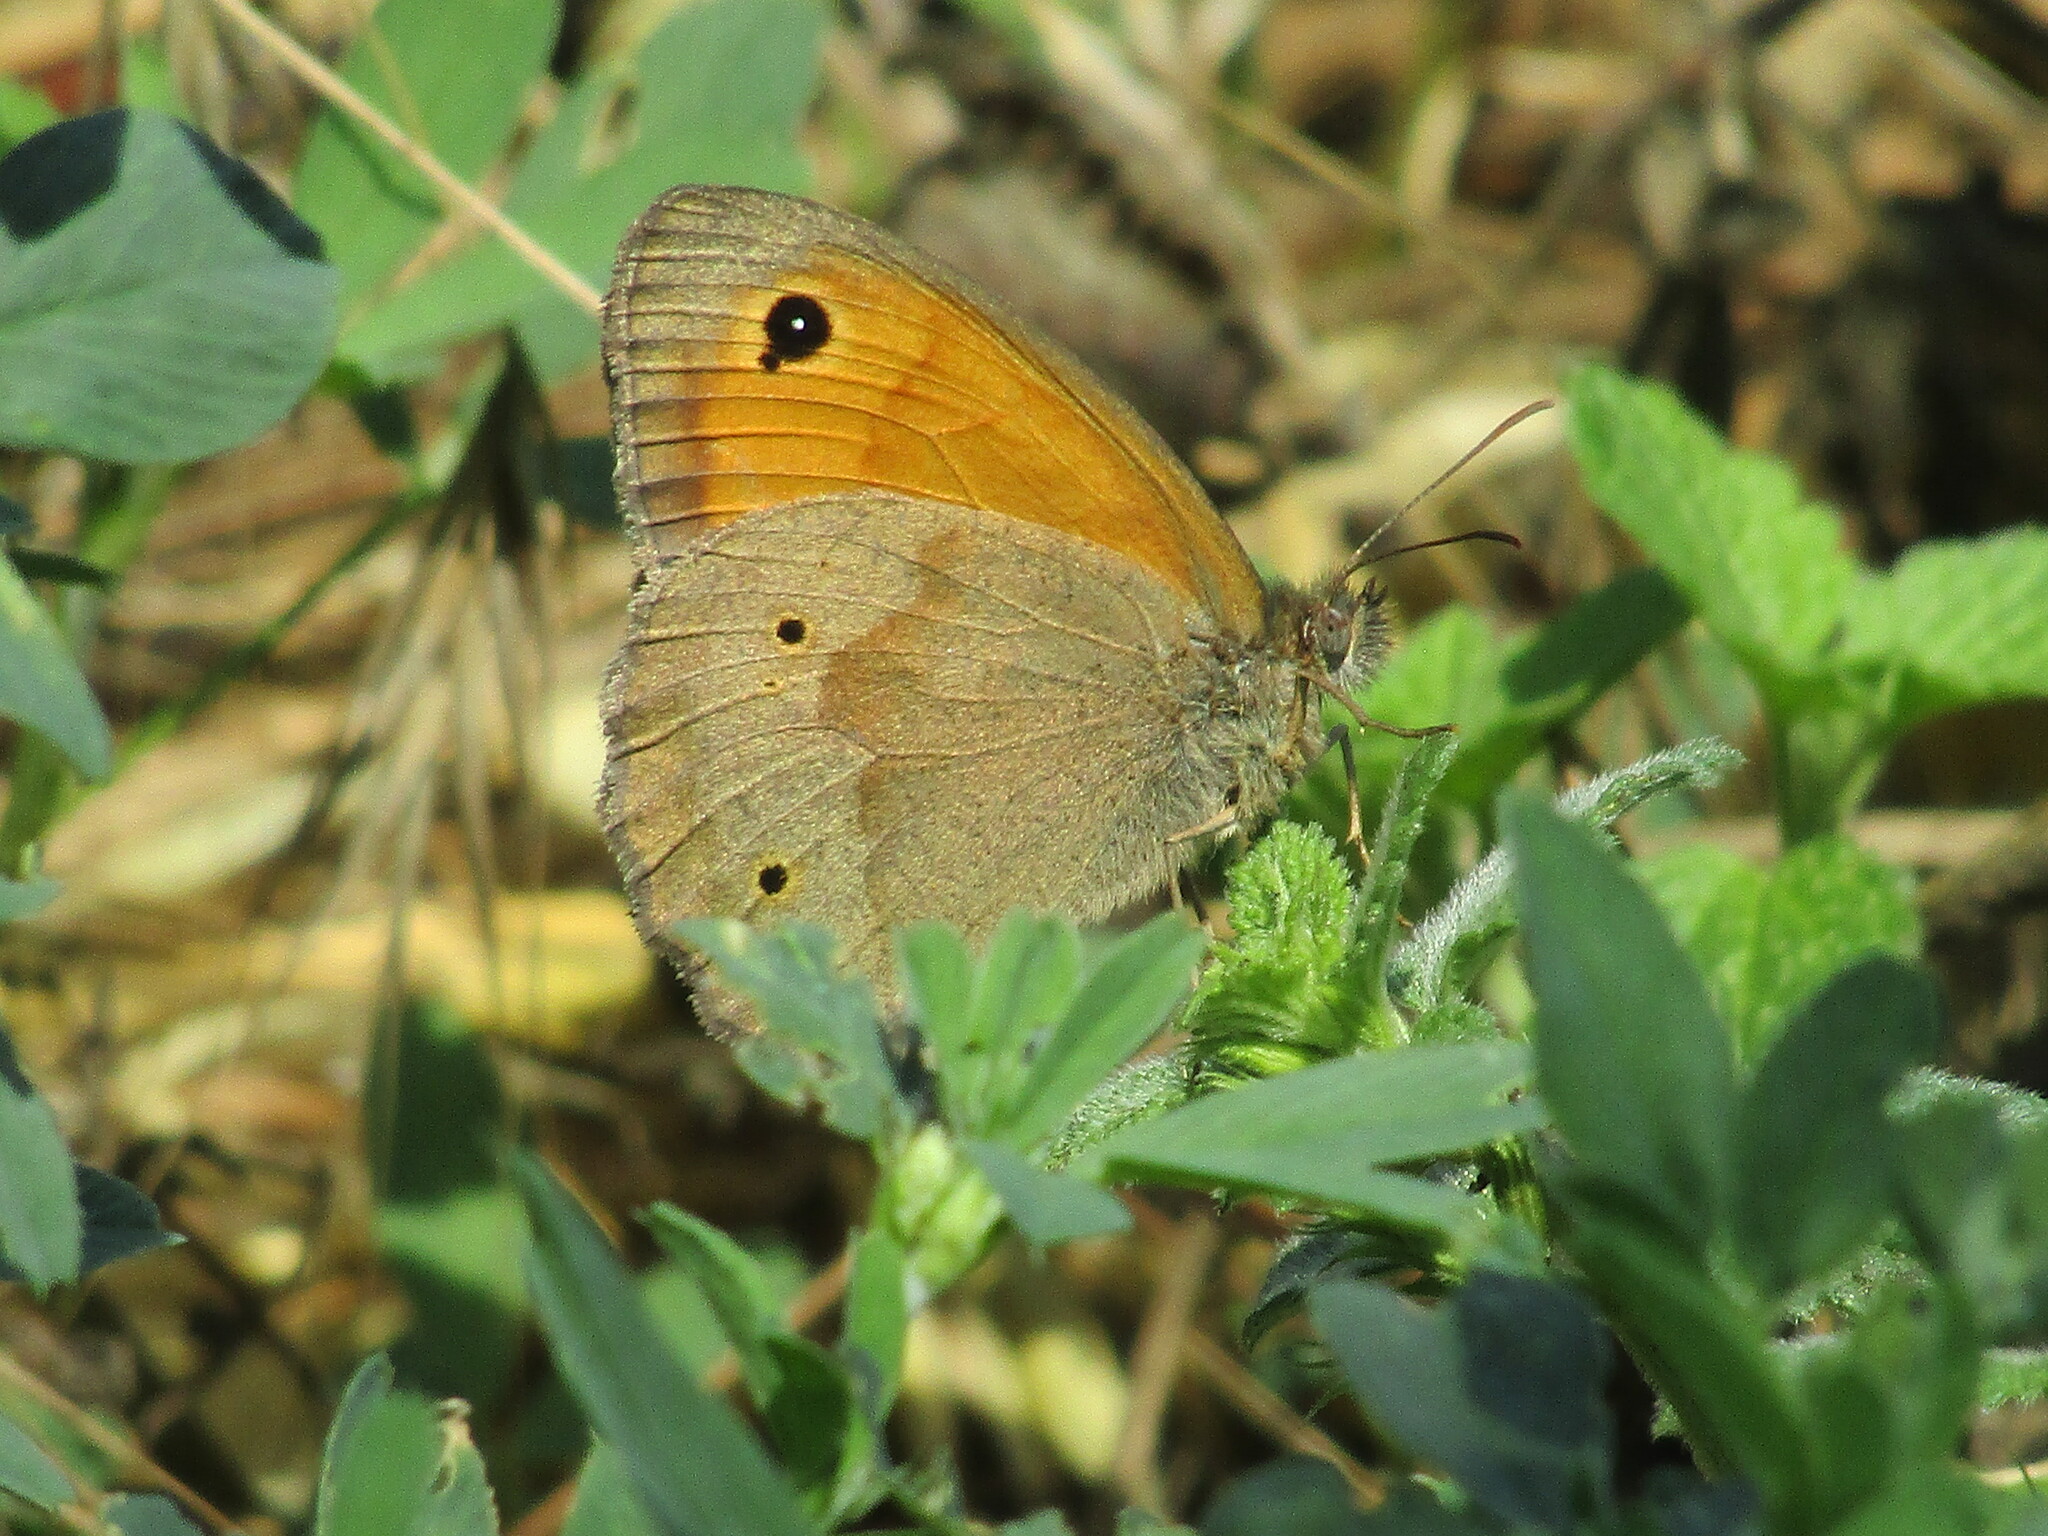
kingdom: Animalia
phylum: Arthropoda
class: Insecta
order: Lepidoptera
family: Nymphalidae
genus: Maniola
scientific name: Maniola jurtina
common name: Meadow brown
